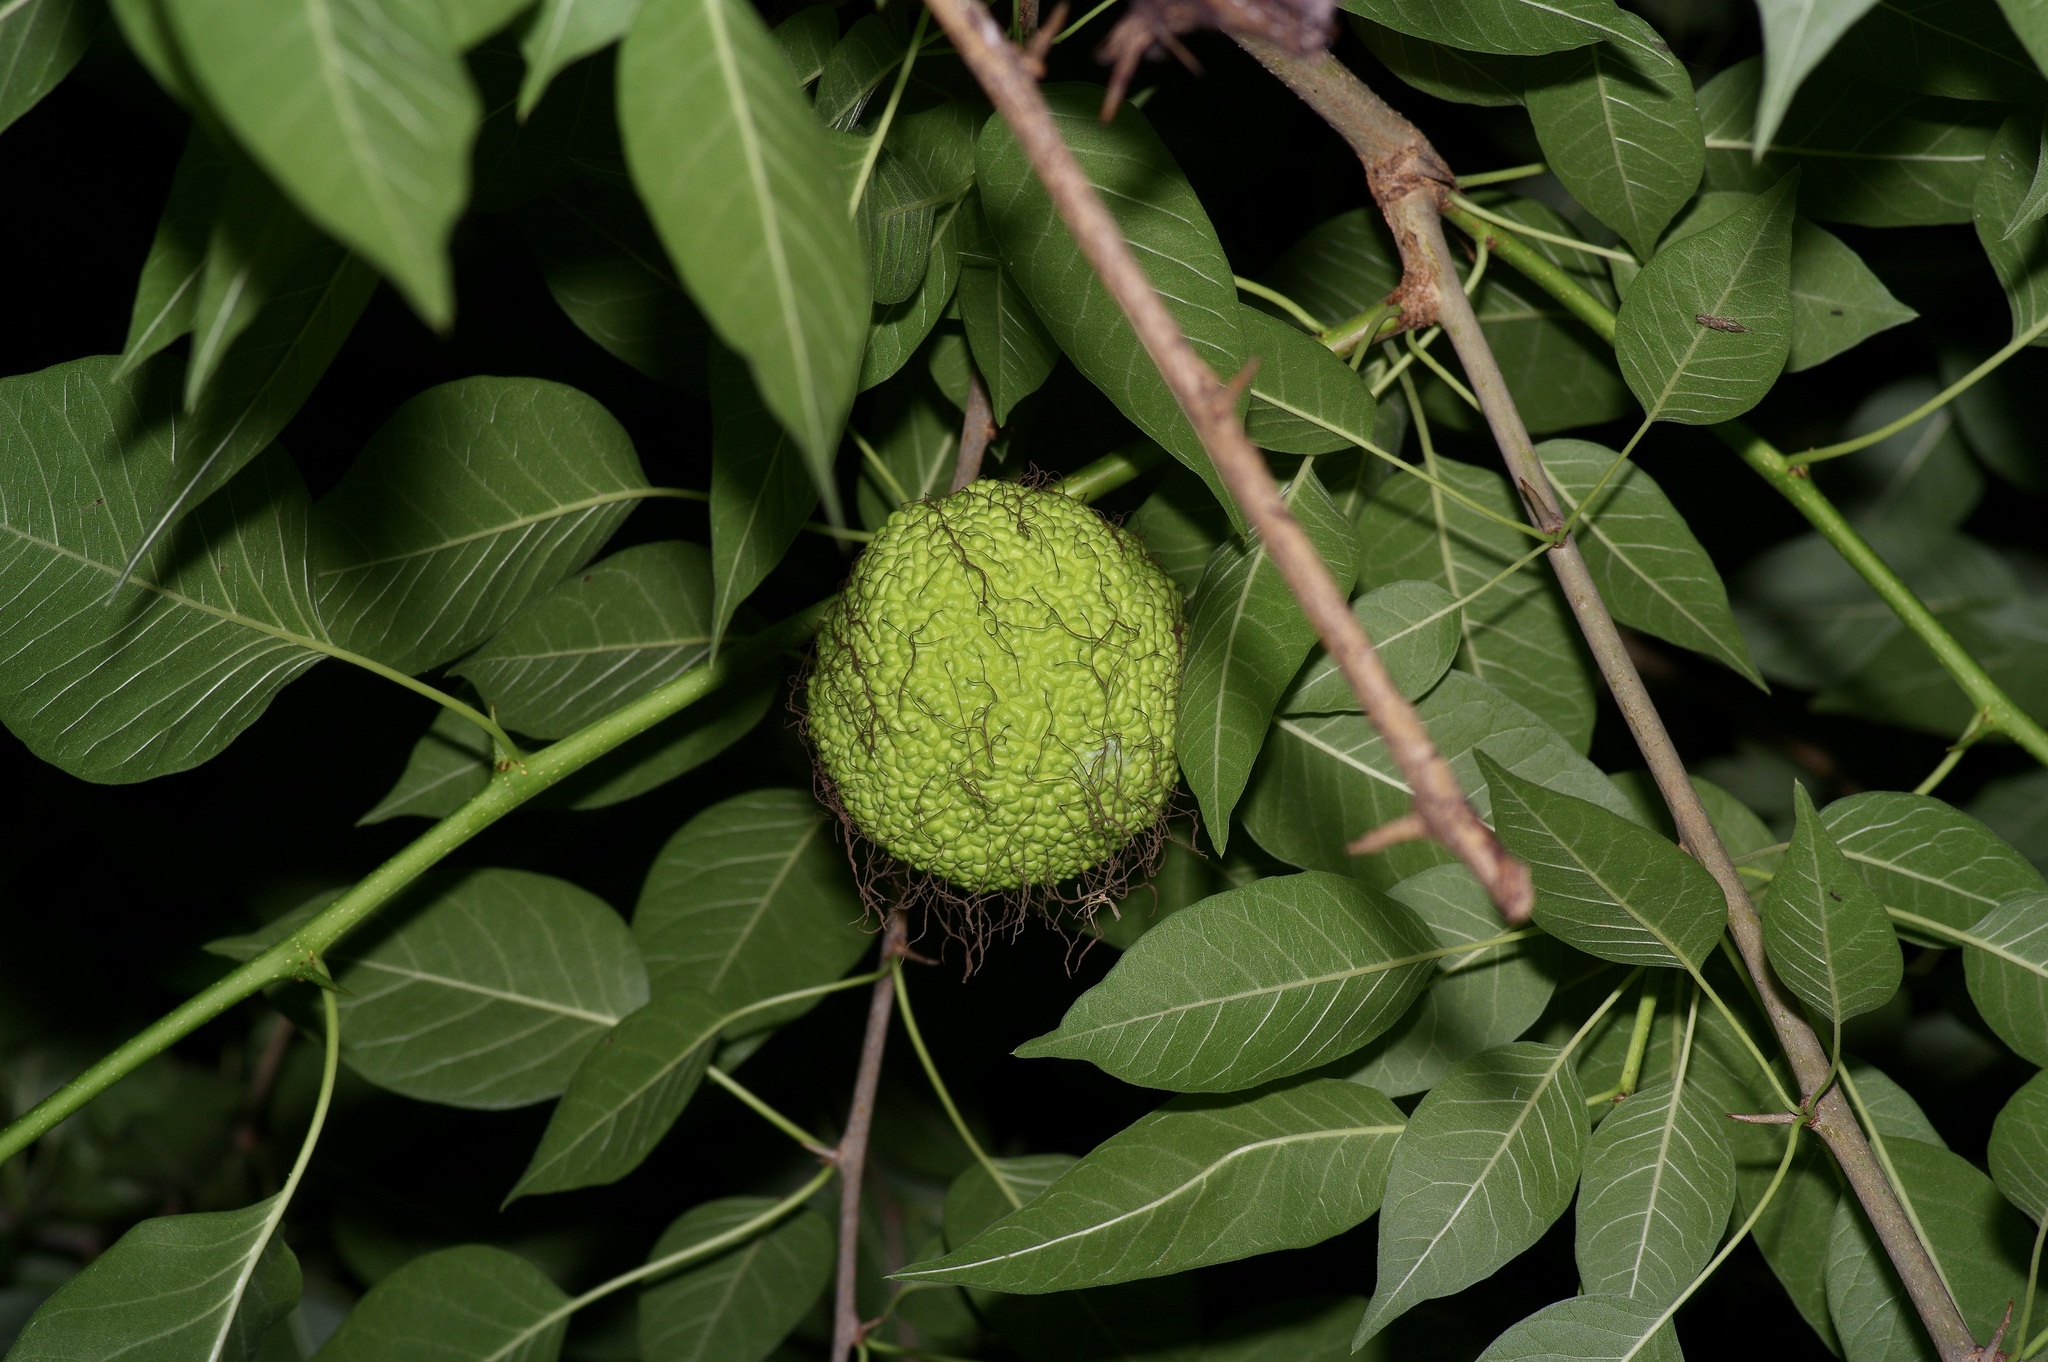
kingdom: Plantae
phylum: Tracheophyta
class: Magnoliopsida
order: Rosales
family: Moraceae
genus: Maclura
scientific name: Maclura pomifera
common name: Osage-orange
